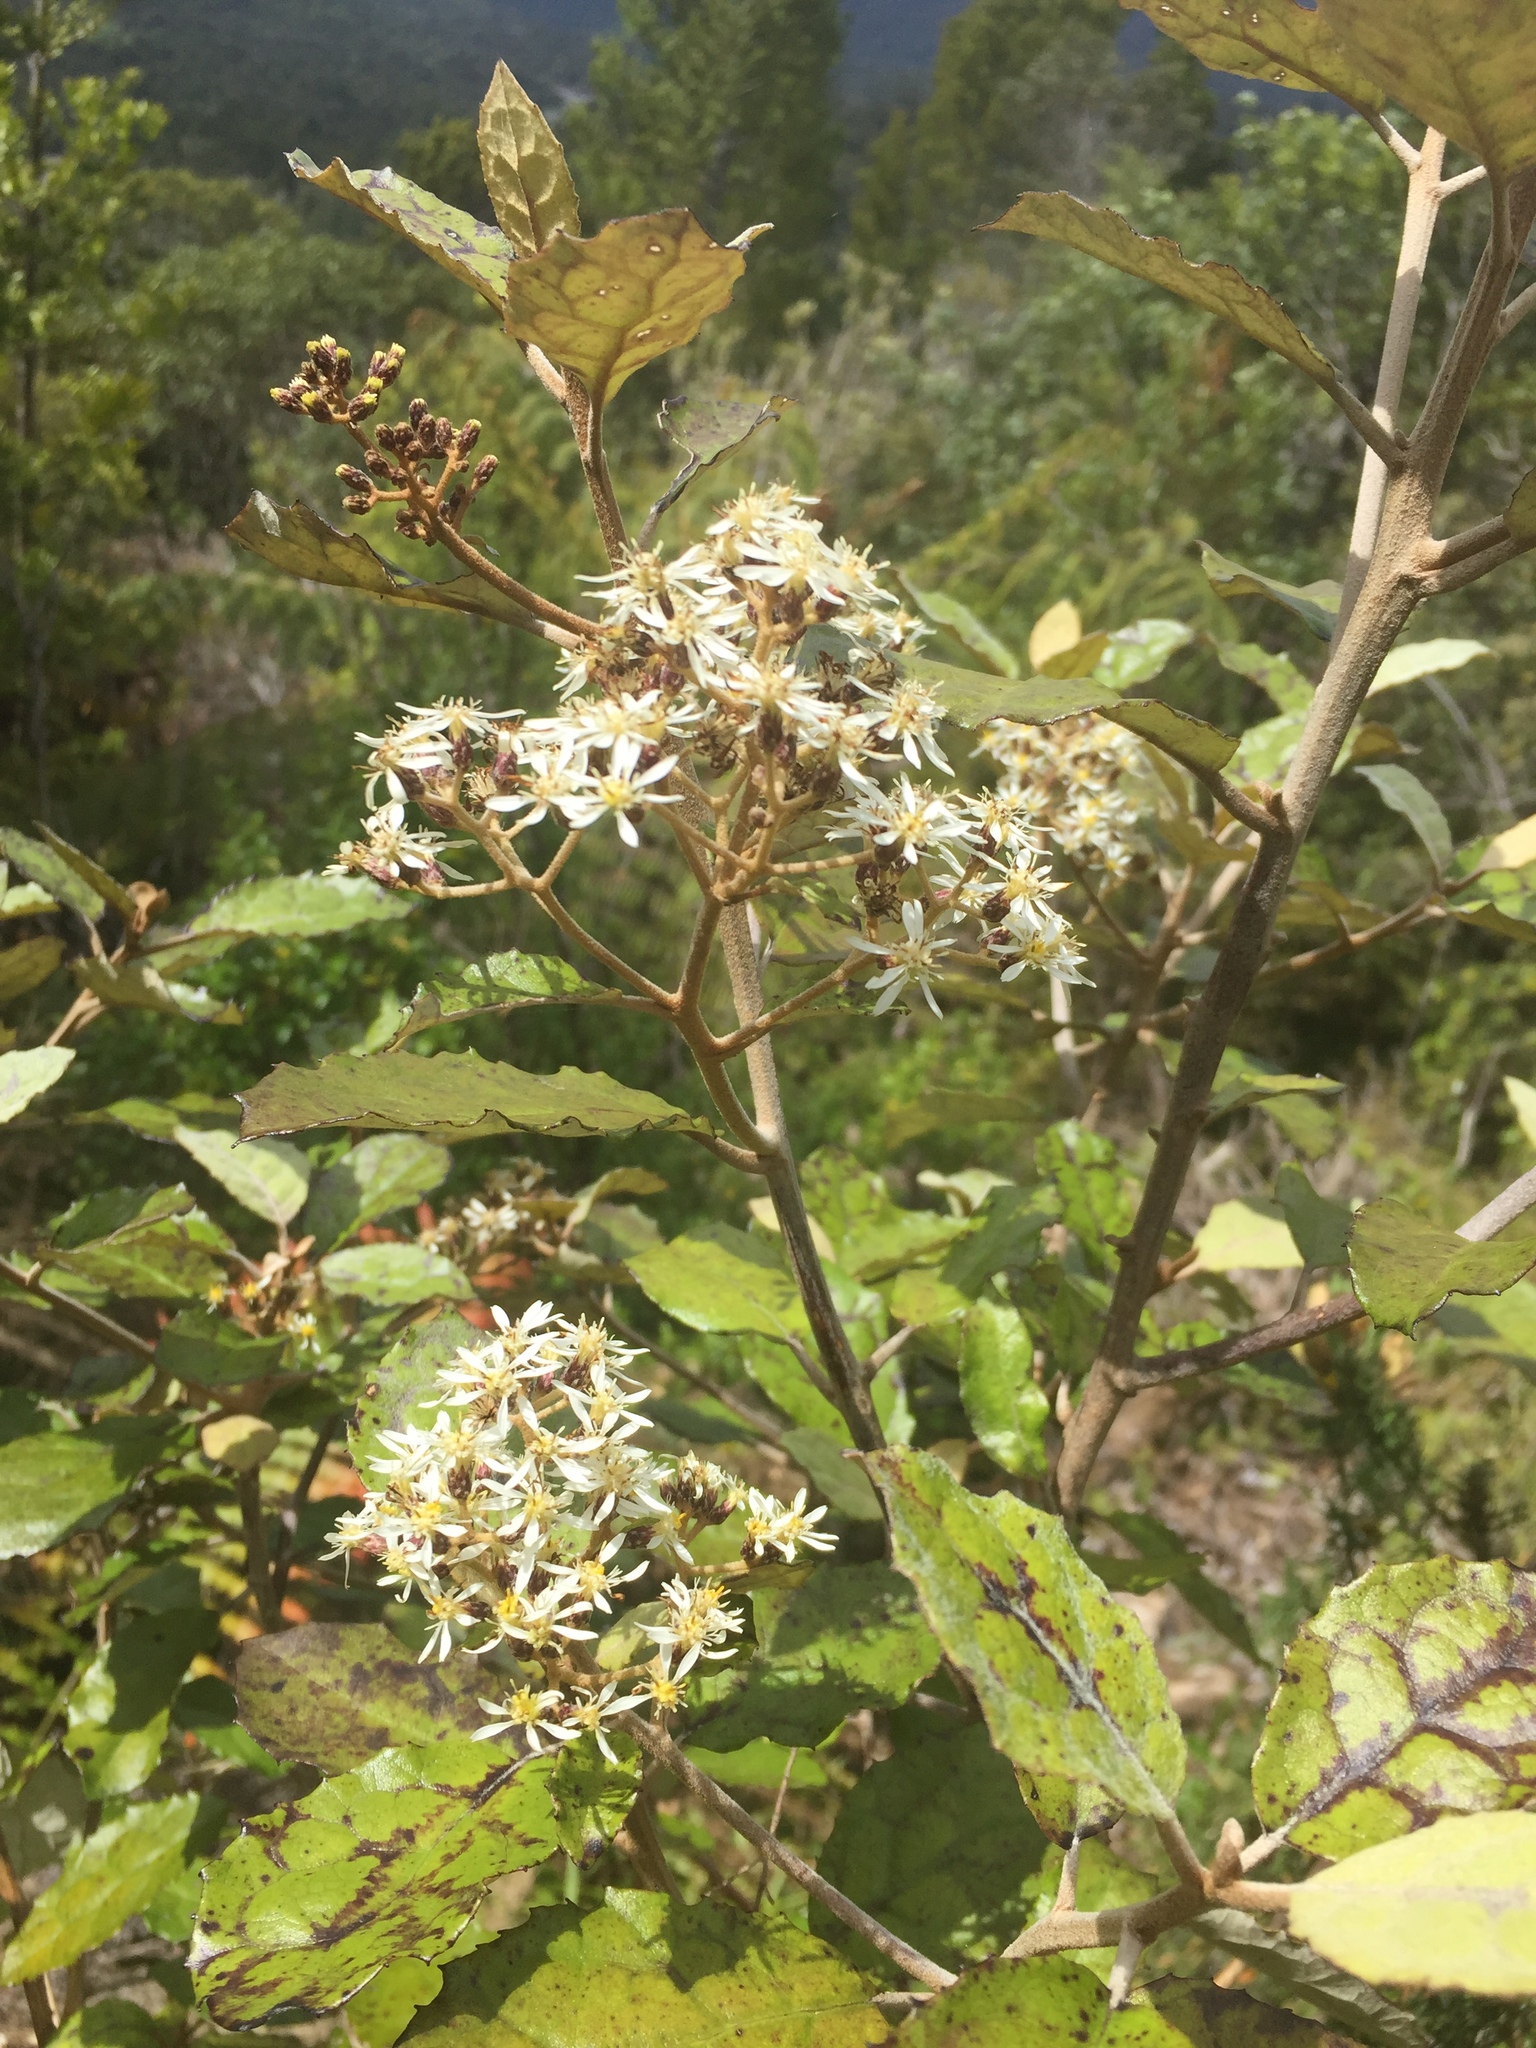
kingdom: Plantae
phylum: Tracheophyta
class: Magnoliopsida
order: Asterales
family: Asteraceae
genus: Olearia
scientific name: Olearia rani
